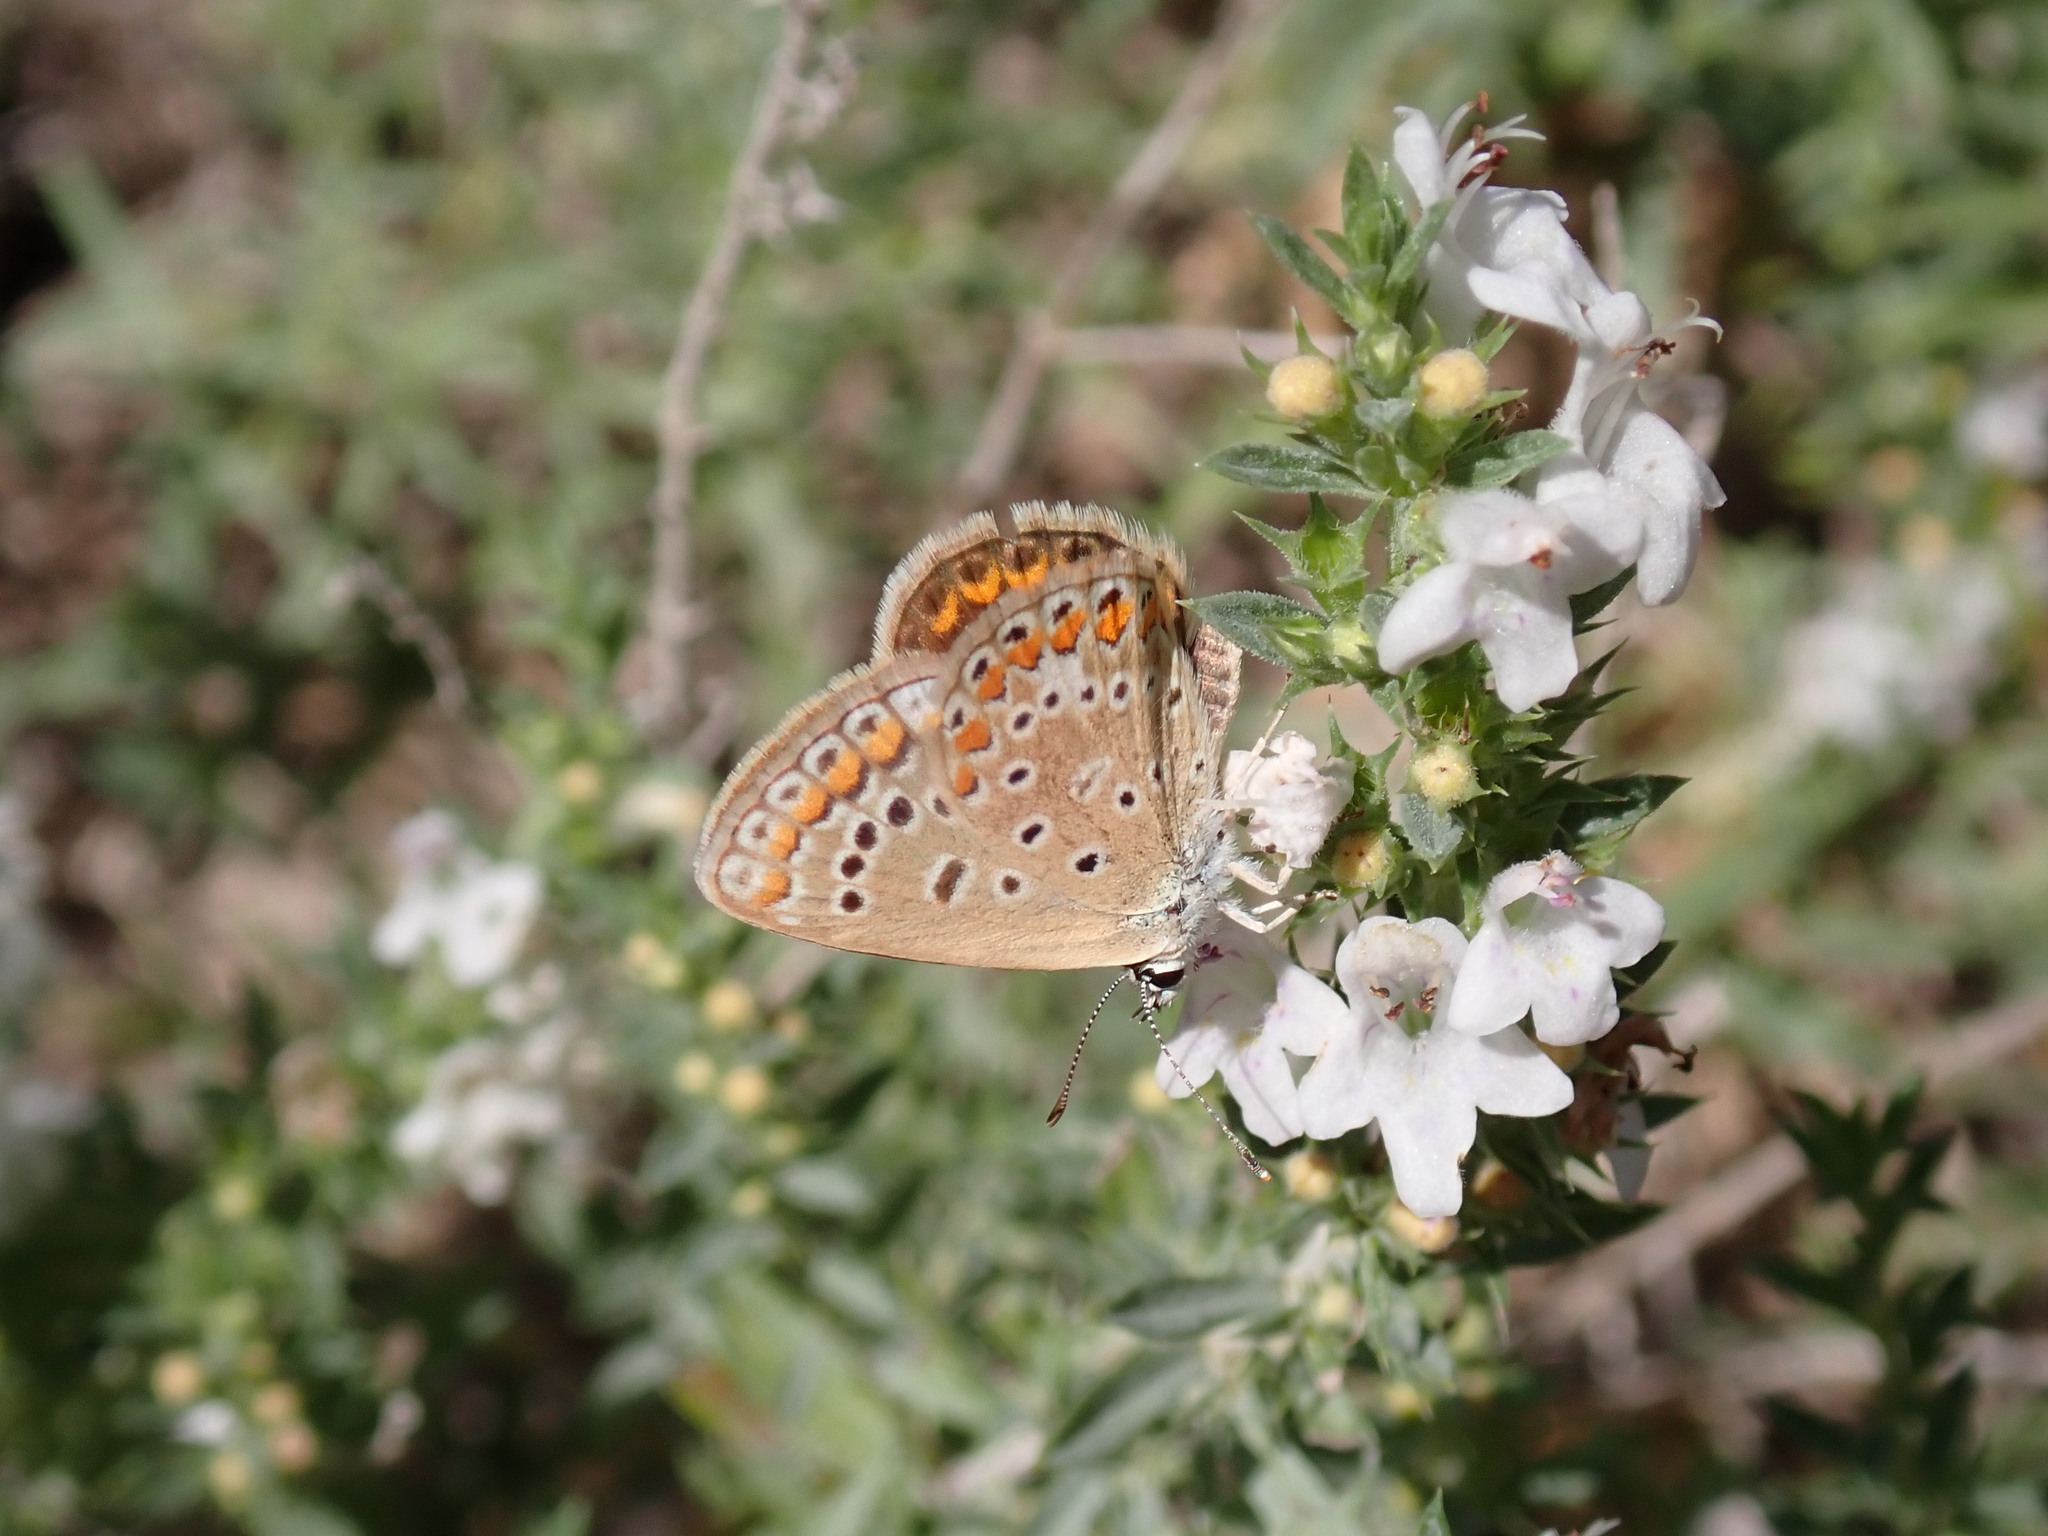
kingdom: Animalia
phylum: Arthropoda
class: Insecta
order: Lepidoptera
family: Lycaenidae
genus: Polyommatus
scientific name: Polyommatus icarus
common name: Common blue
